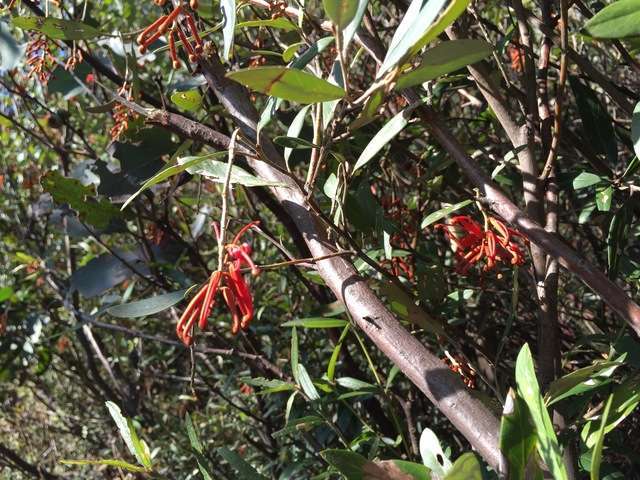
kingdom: Plantae
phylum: Tracheophyta
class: Magnoliopsida
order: Proteales
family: Proteaceae
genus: Grevillea
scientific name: Grevillea victoriae
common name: Royal grevillea
